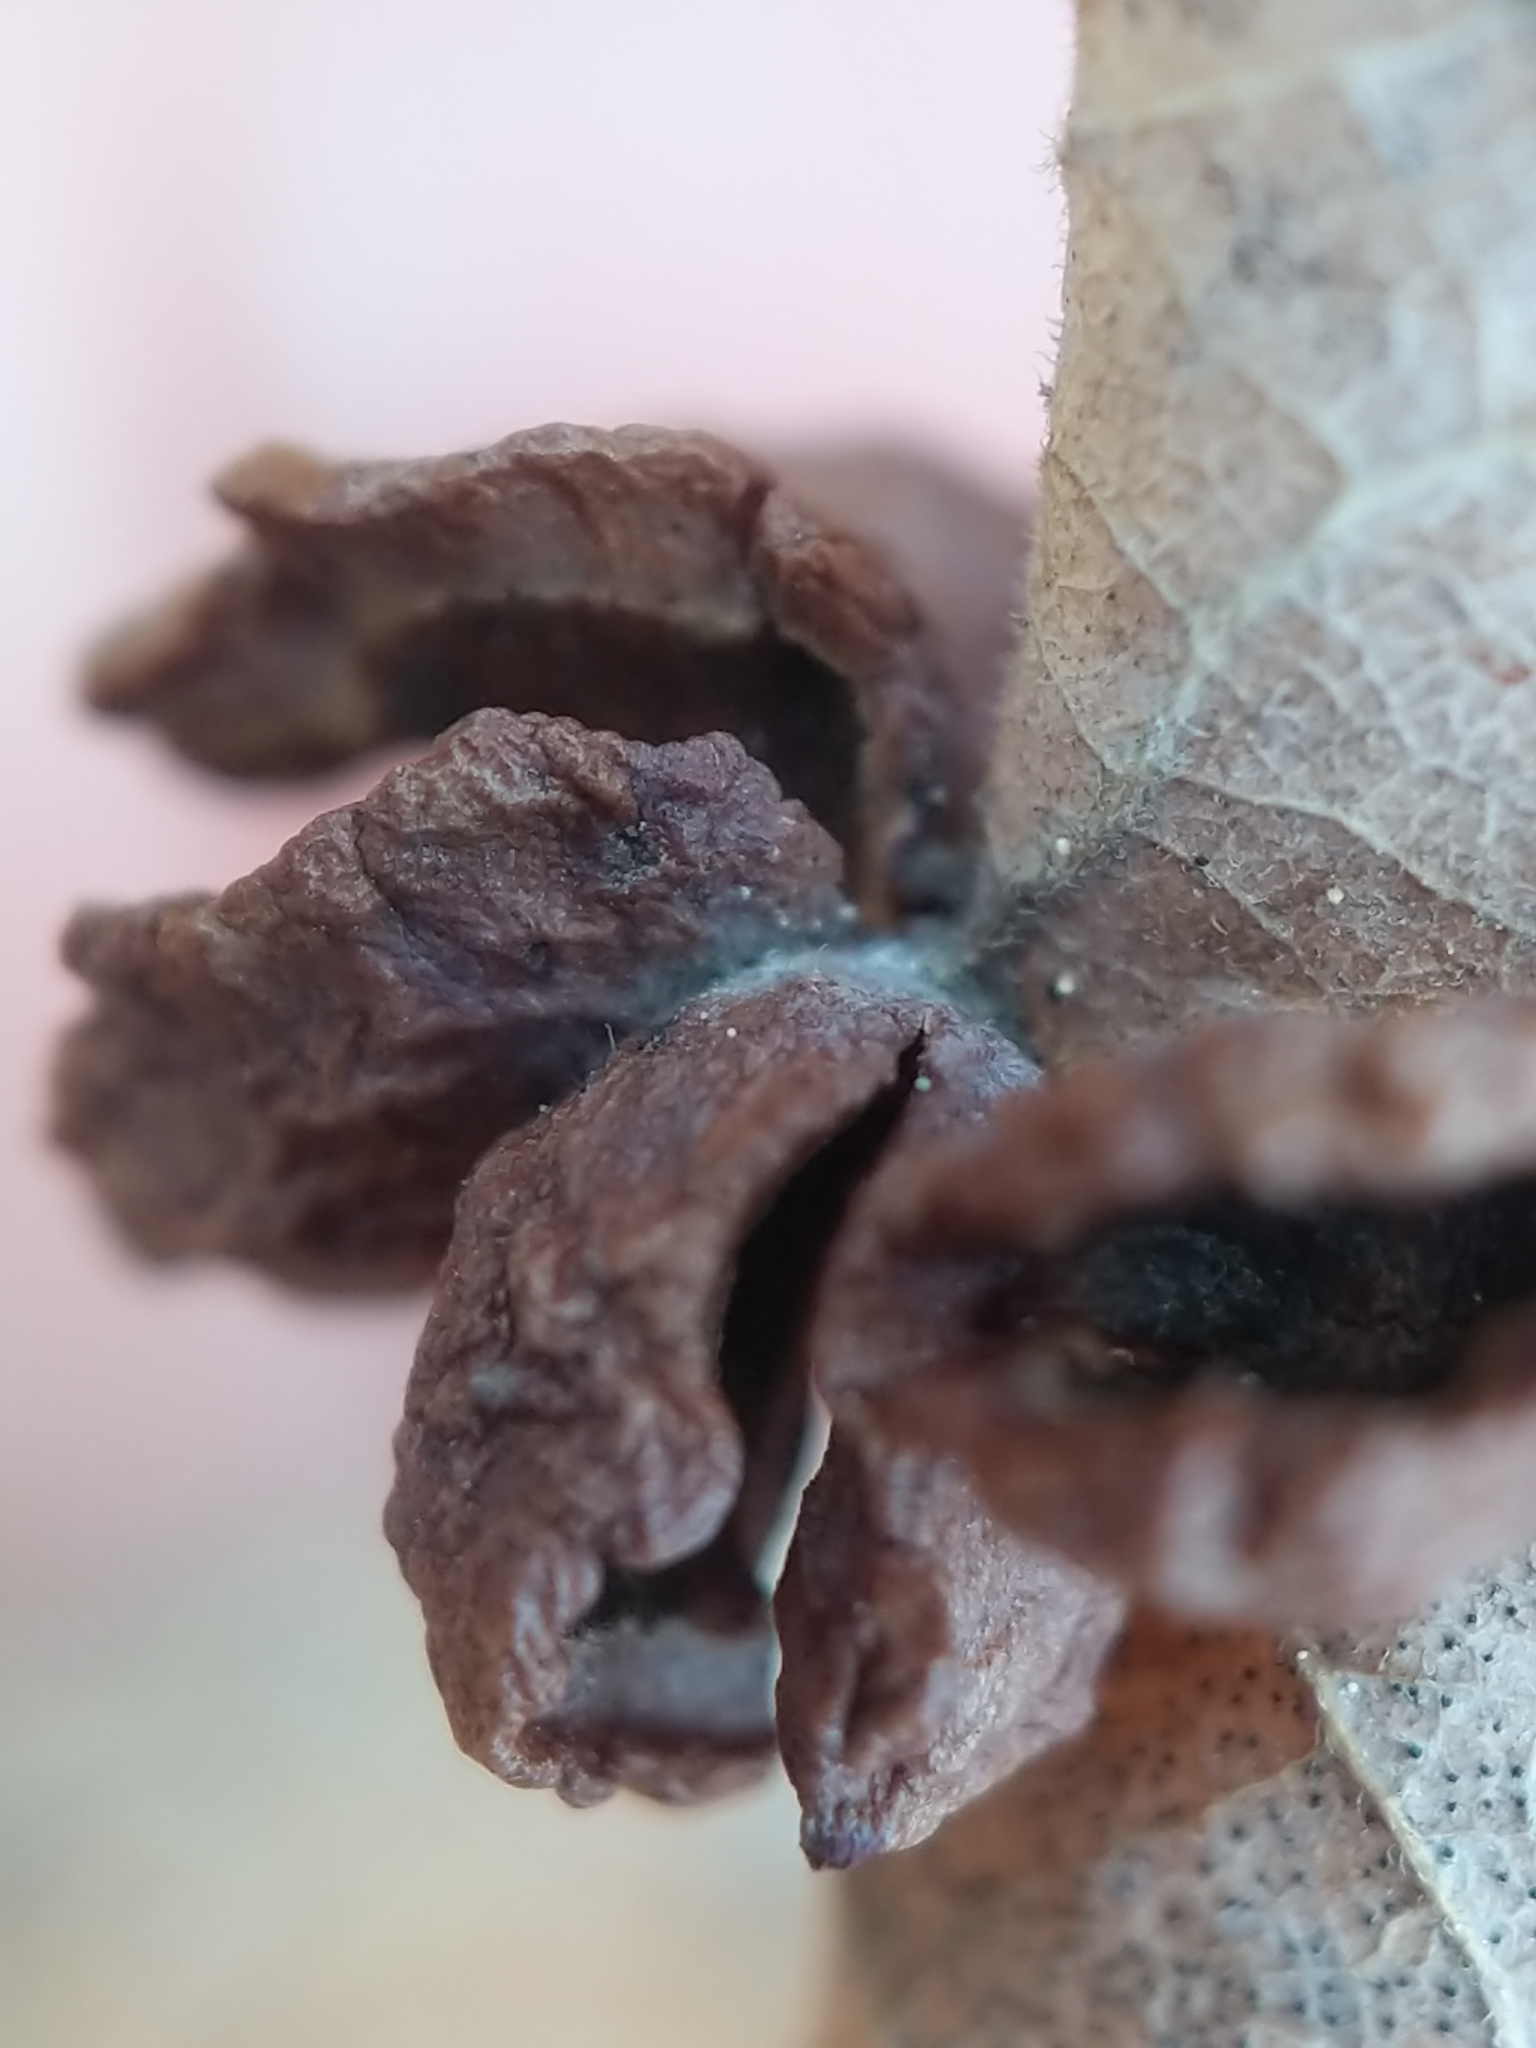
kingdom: Animalia
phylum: Arthropoda
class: Insecta
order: Diptera
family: Cecidomyiidae
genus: Vaccinidiplosis
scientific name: Vaccinidiplosis
